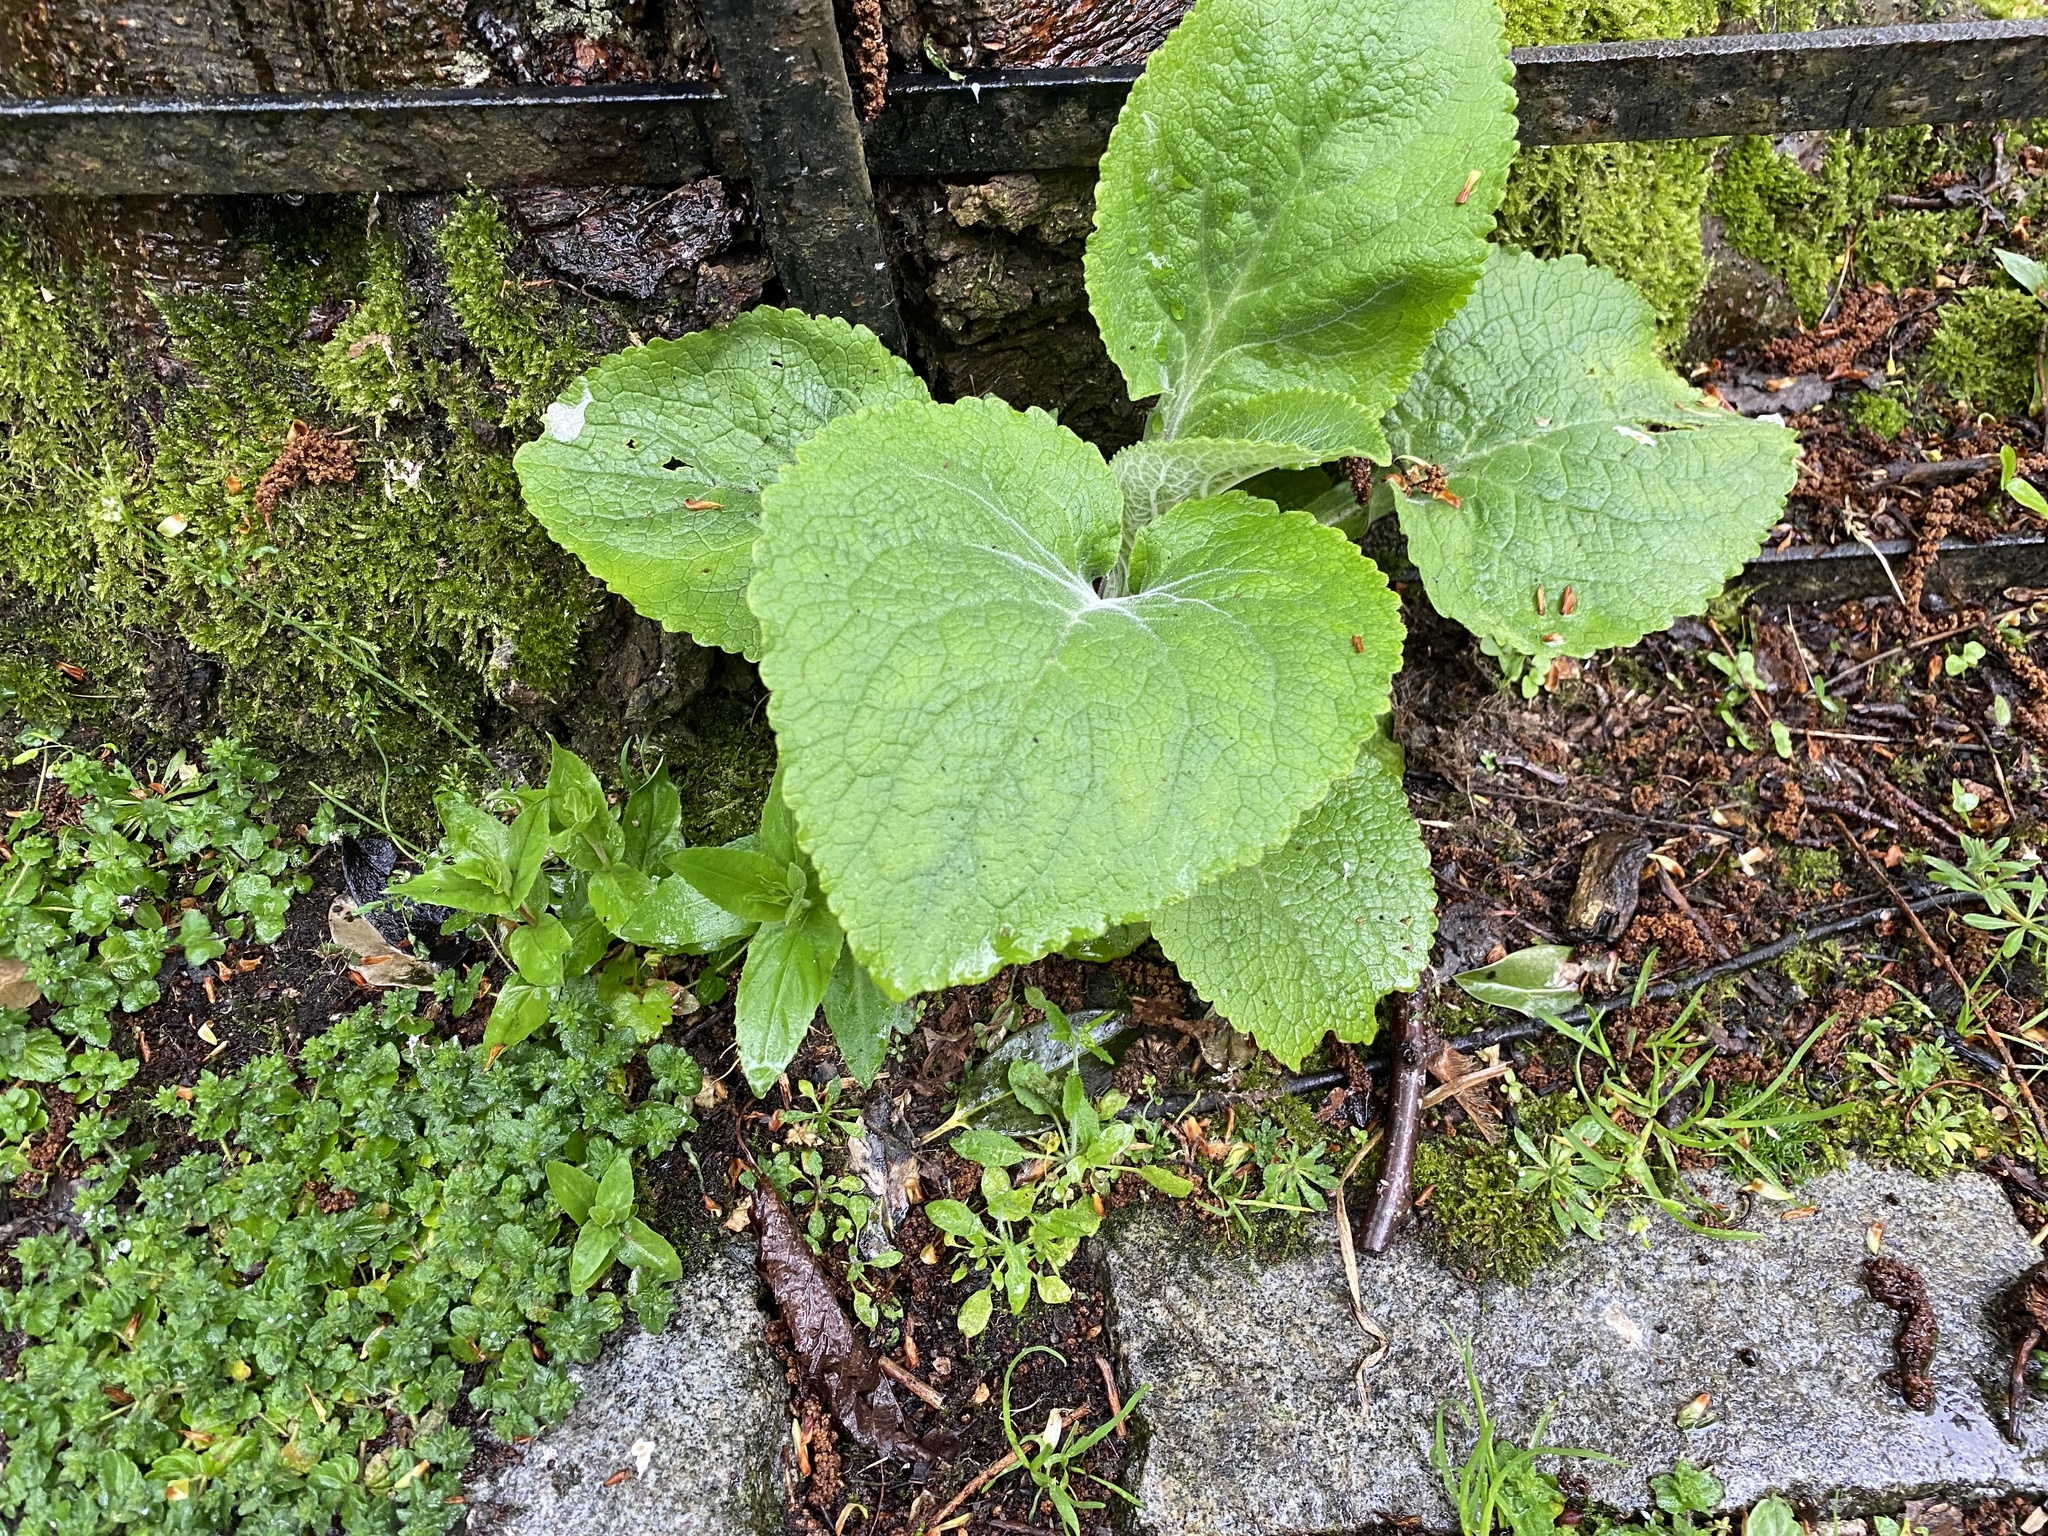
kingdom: Plantae
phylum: Tracheophyta
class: Magnoliopsida
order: Lamiales
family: Plantaginaceae
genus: Digitalis
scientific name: Digitalis purpurea
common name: Foxglove
